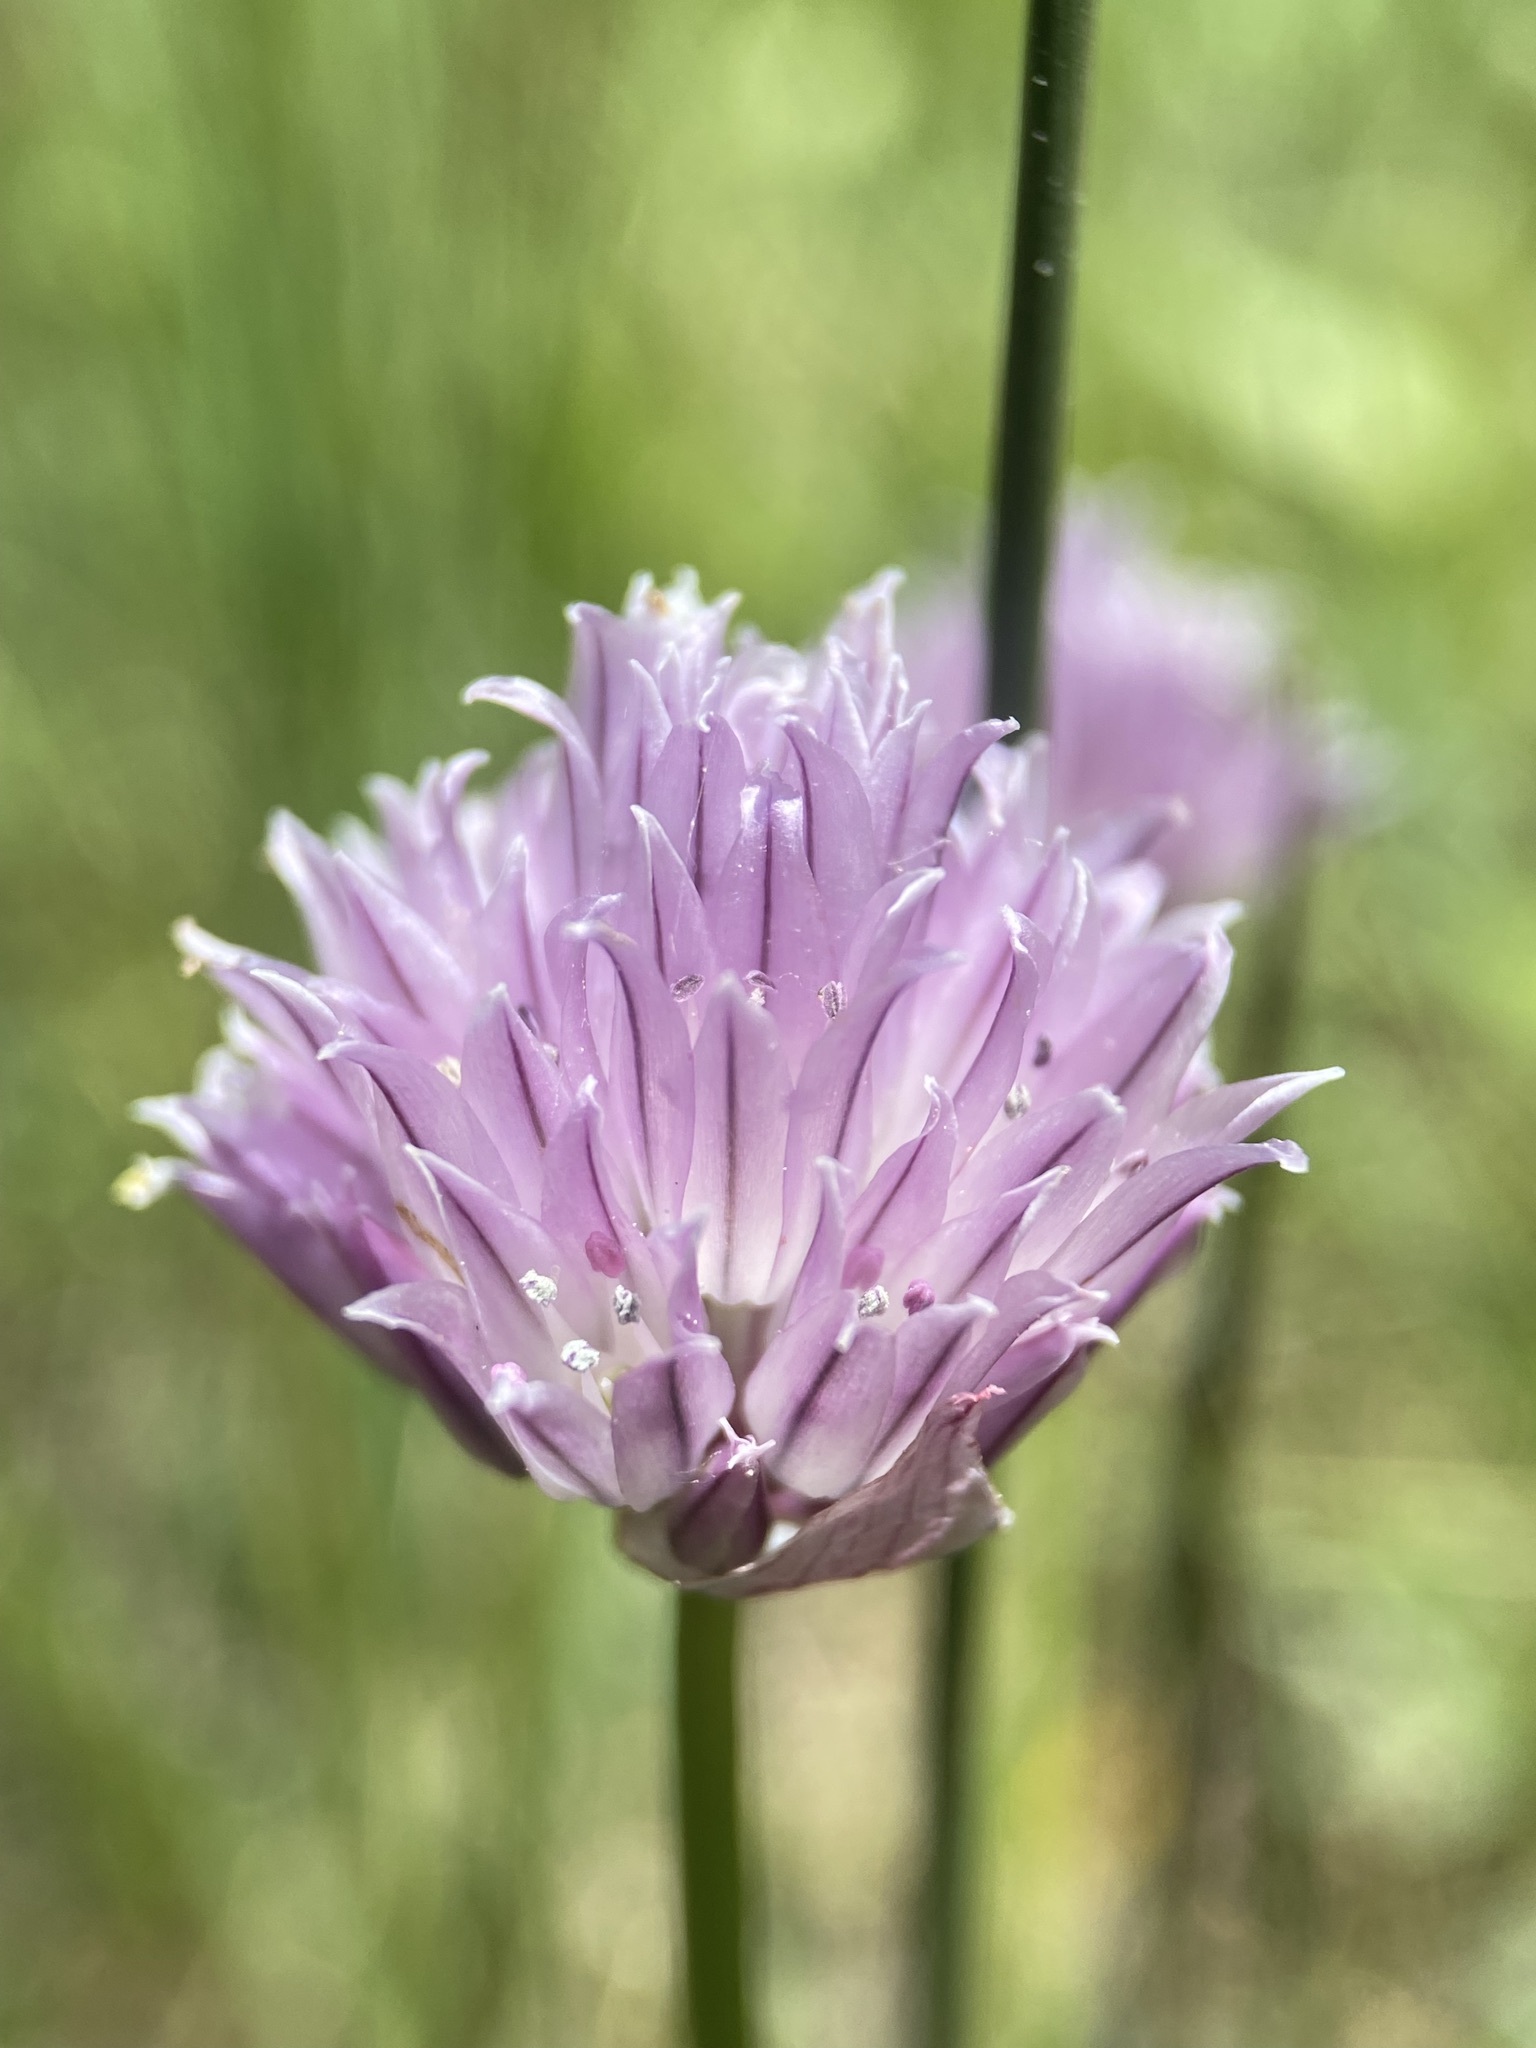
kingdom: Plantae
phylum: Tracheophyta
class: Liliopsida
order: Asparagales
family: Amaryllidaceae
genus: Allium
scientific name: Allium schoenoprasum
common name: Chives
